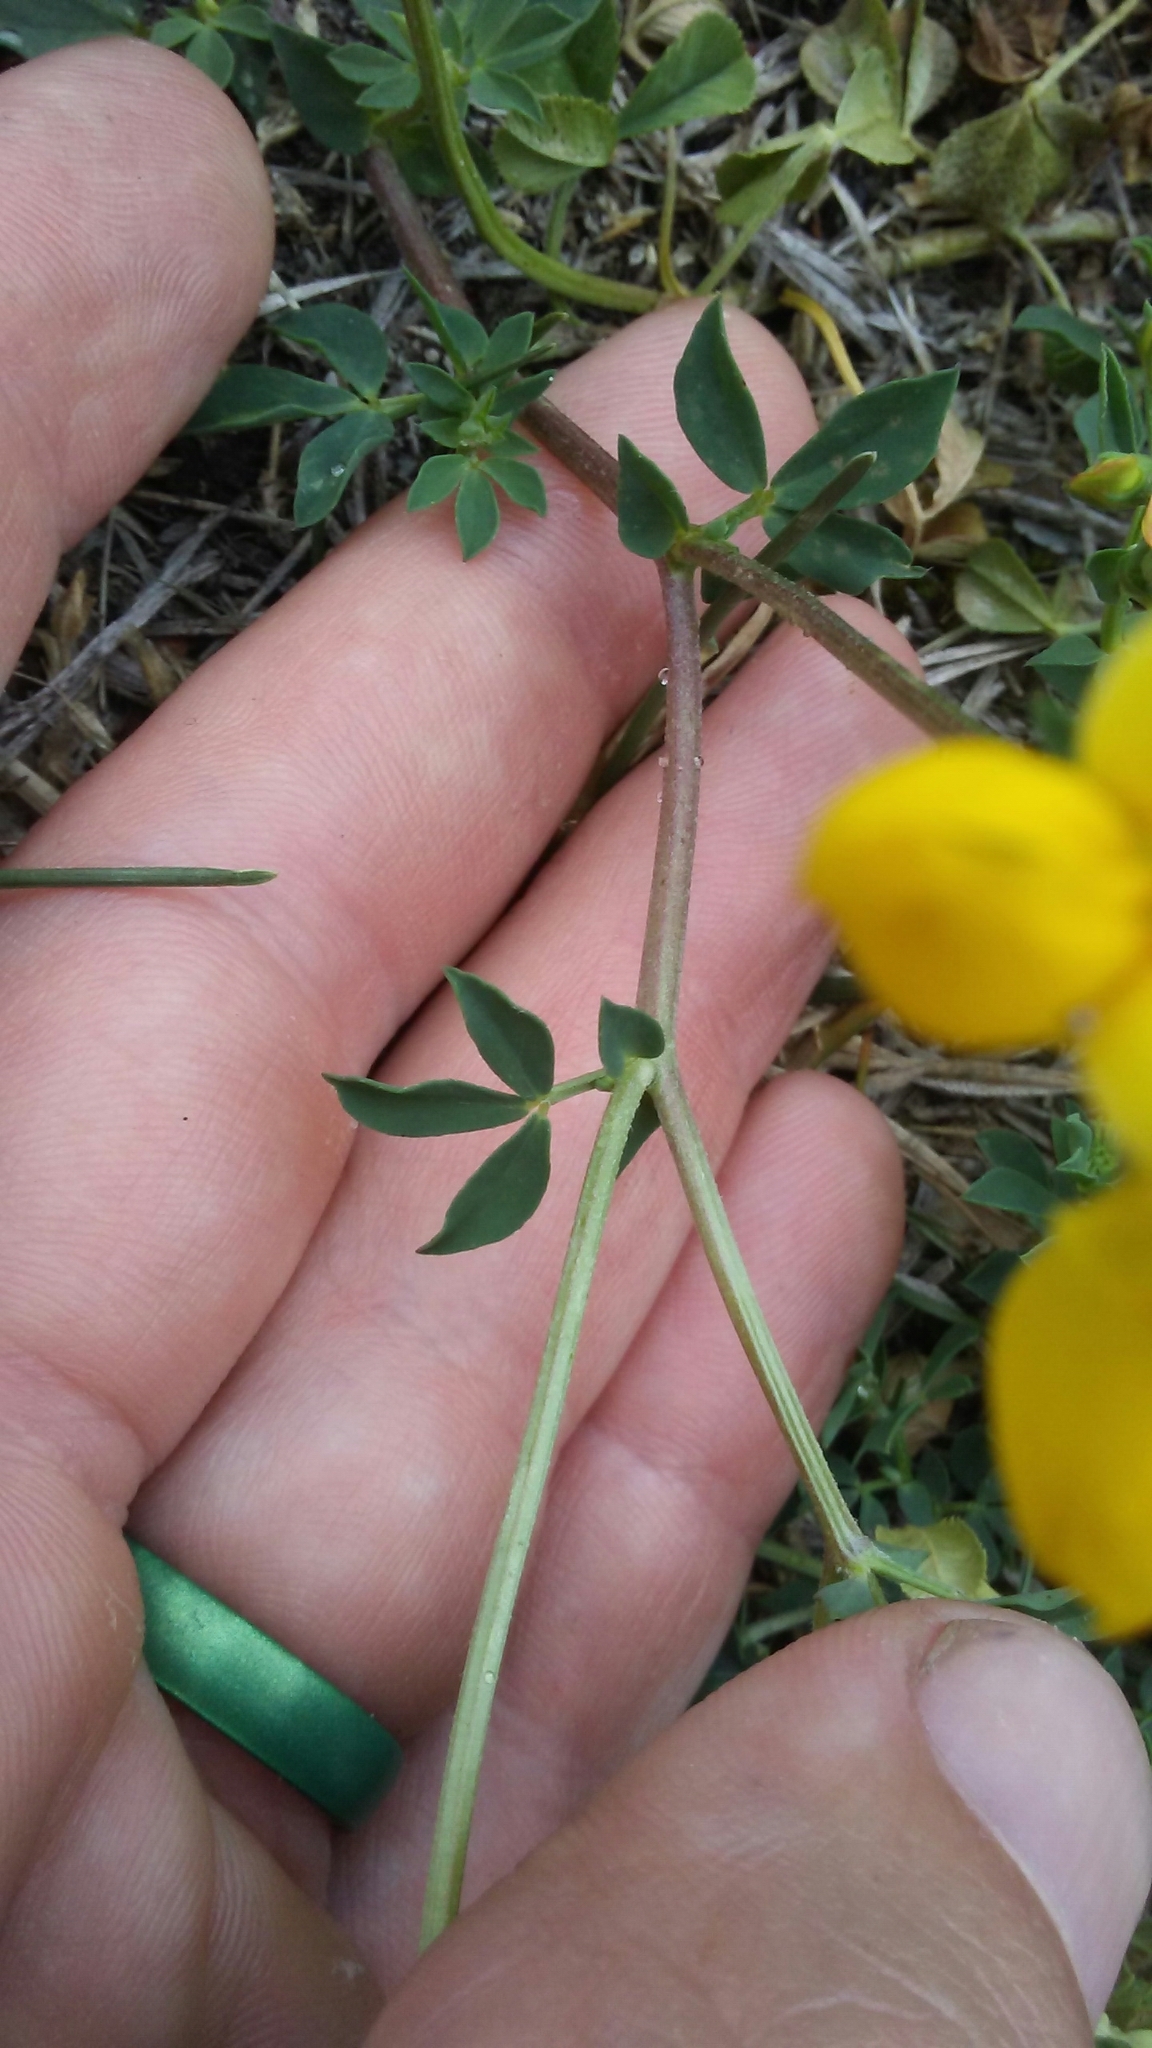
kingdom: Plantae
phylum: Tracheophyta
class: Magnoliopsida
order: Fabales
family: Fabaceae
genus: Lotus
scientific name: Lotus corniculatus
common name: Common bird's-foot-trefoil
